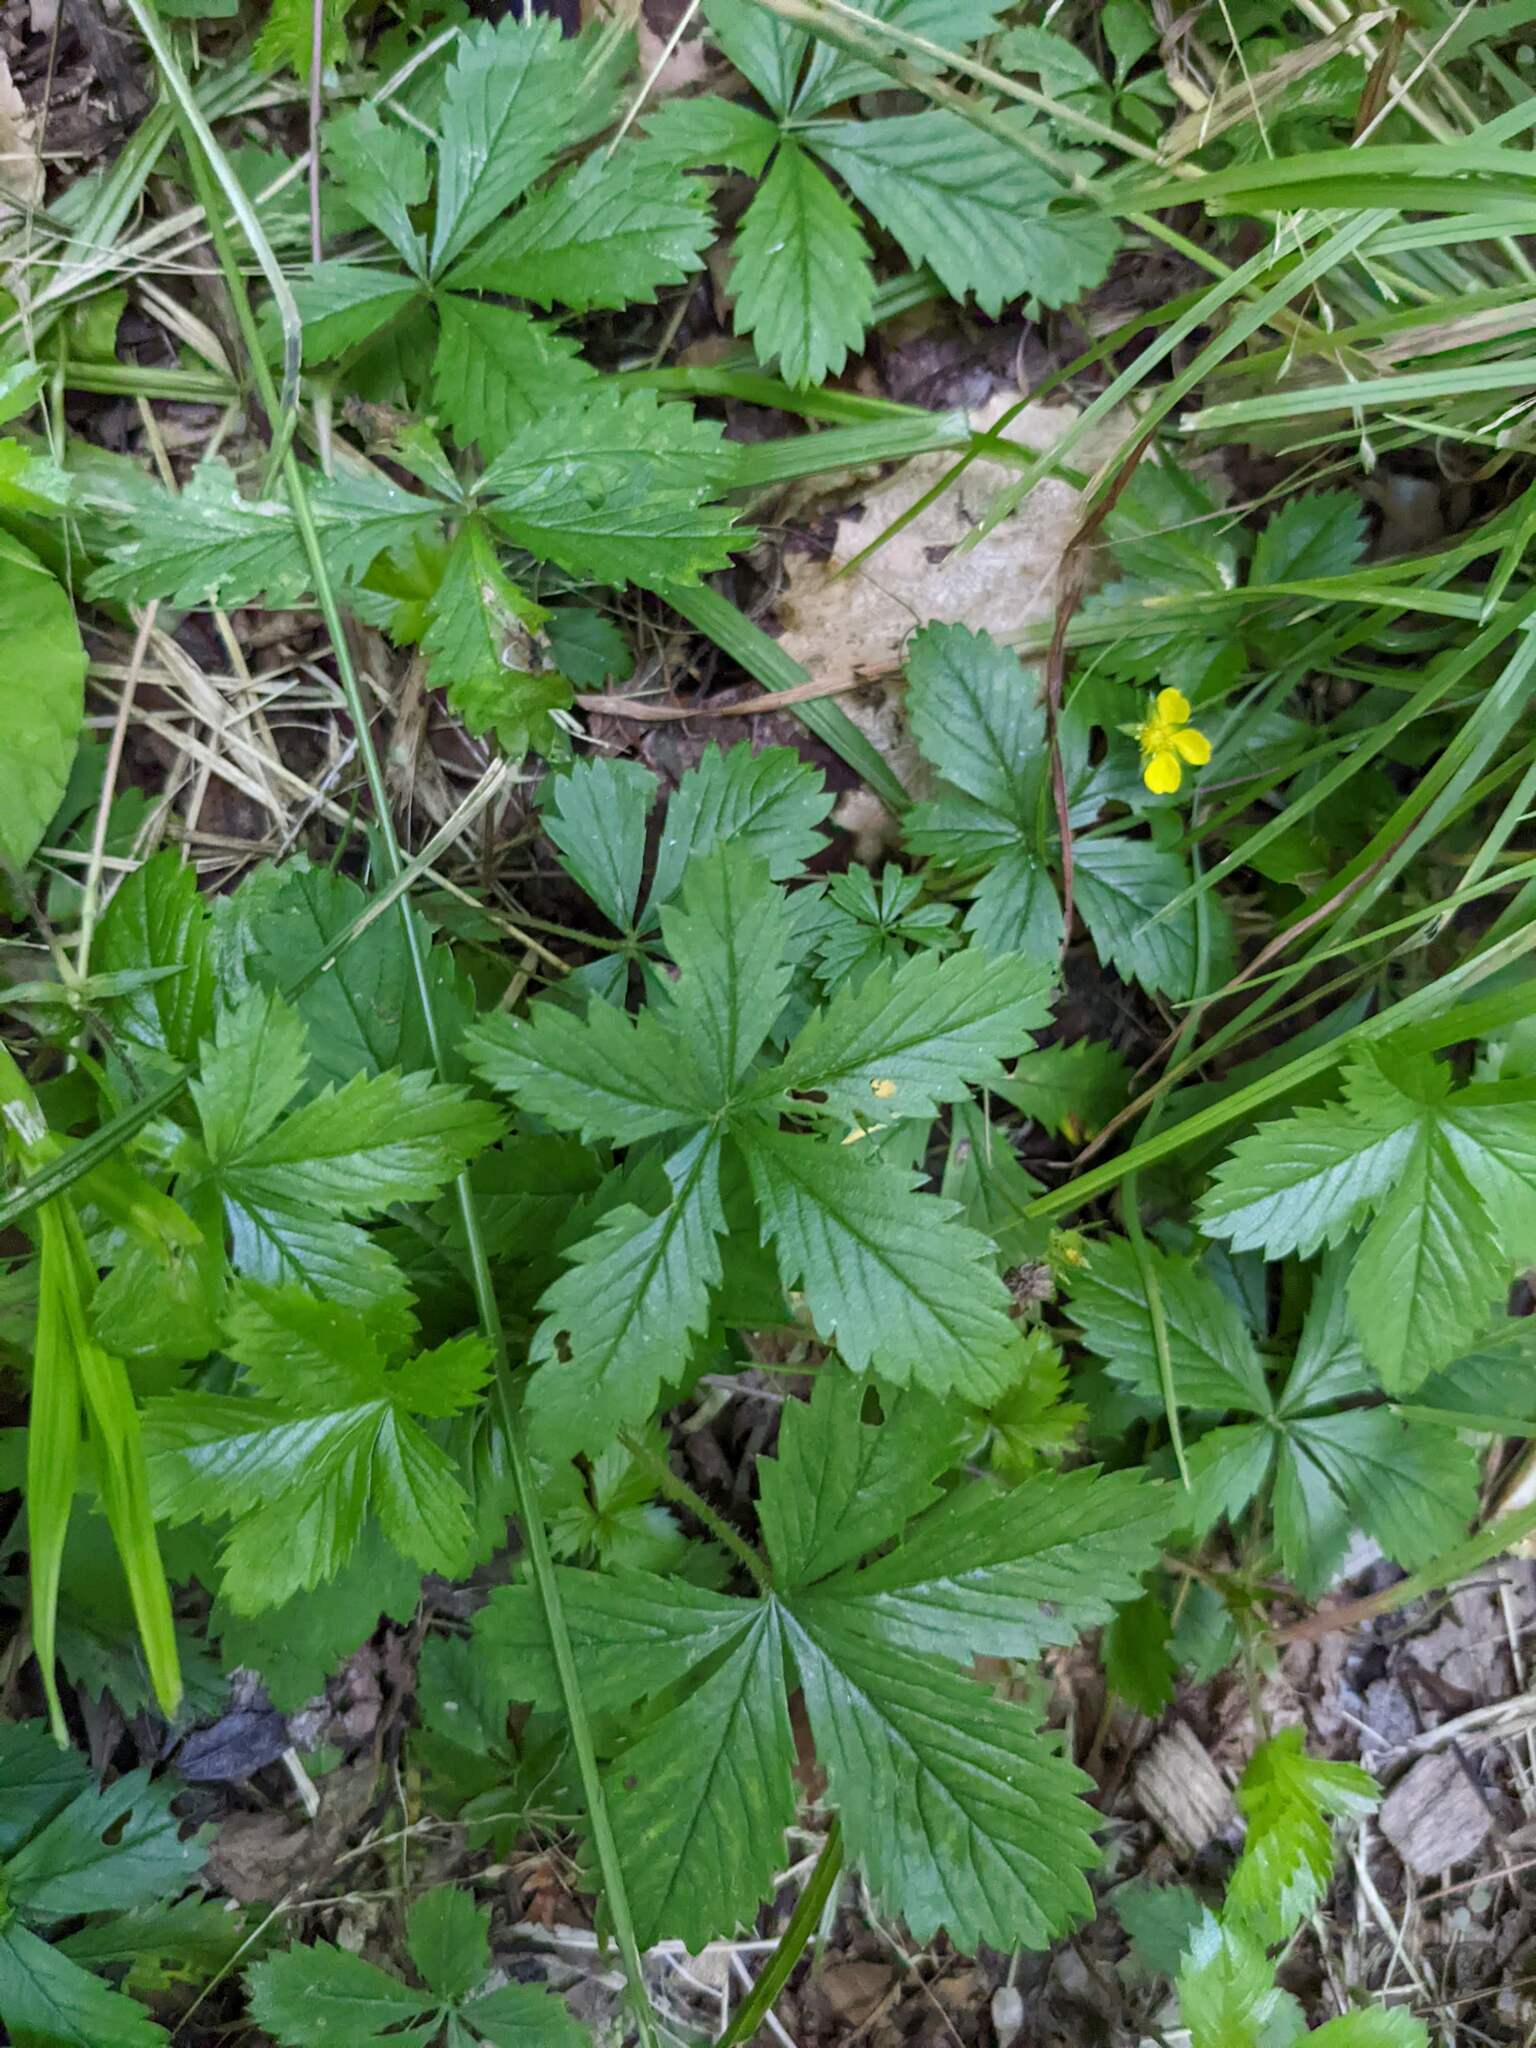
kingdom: Plantae
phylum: Tracheophyta
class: Magnoliopsida
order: Rosales
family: Rosaceae
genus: Potentilla
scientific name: Potentilla simplex
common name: Old field cinquefoil
